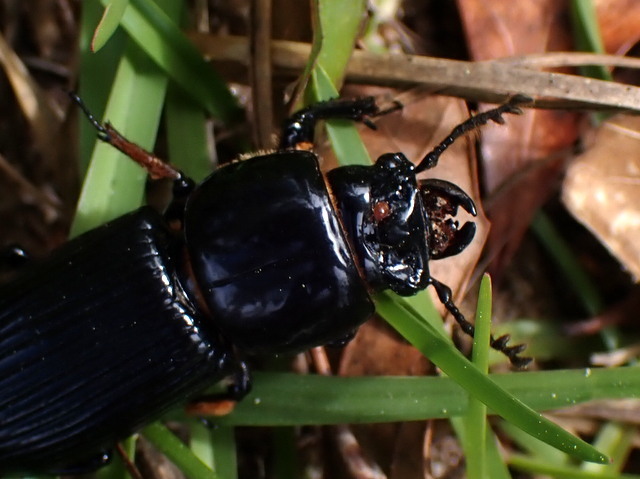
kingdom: Animalia
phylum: Arthropoda
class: Insecta
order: Coleoptera
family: Passalidae
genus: Odontotaenius
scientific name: Odontotaenius disjunctus
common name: Patent leather beetle
